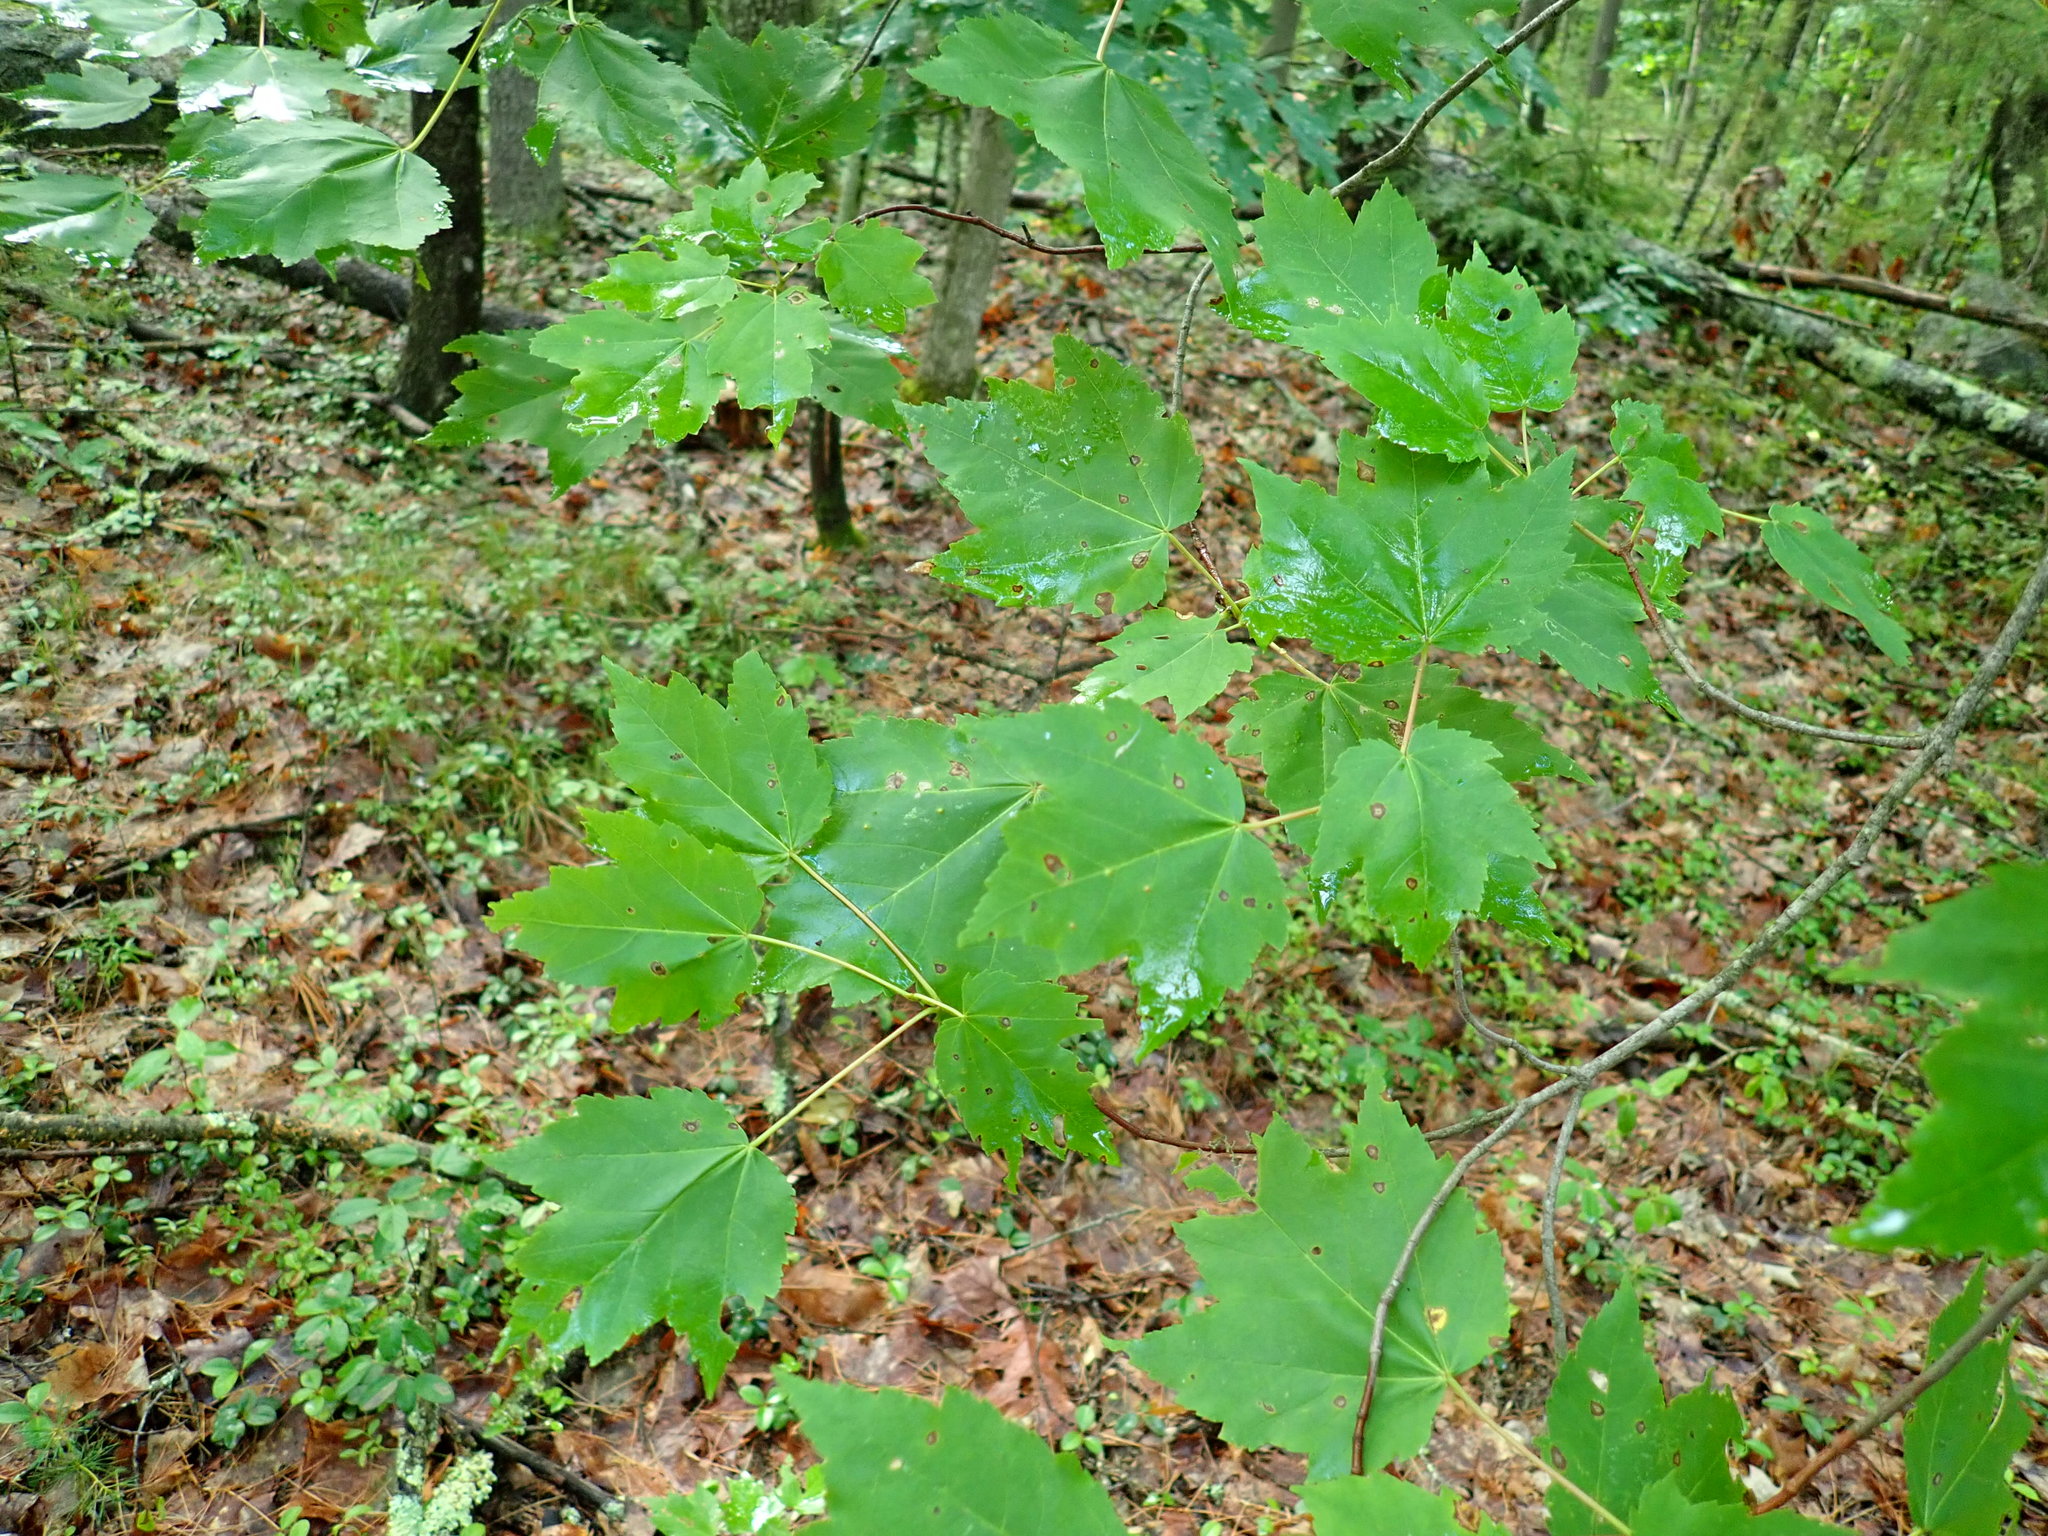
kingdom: Plantae
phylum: Tracheophyta
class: Magnoliopsida
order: Sapindales
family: Sapindaceae
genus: Acer
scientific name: Acer rubrum
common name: Red maple
